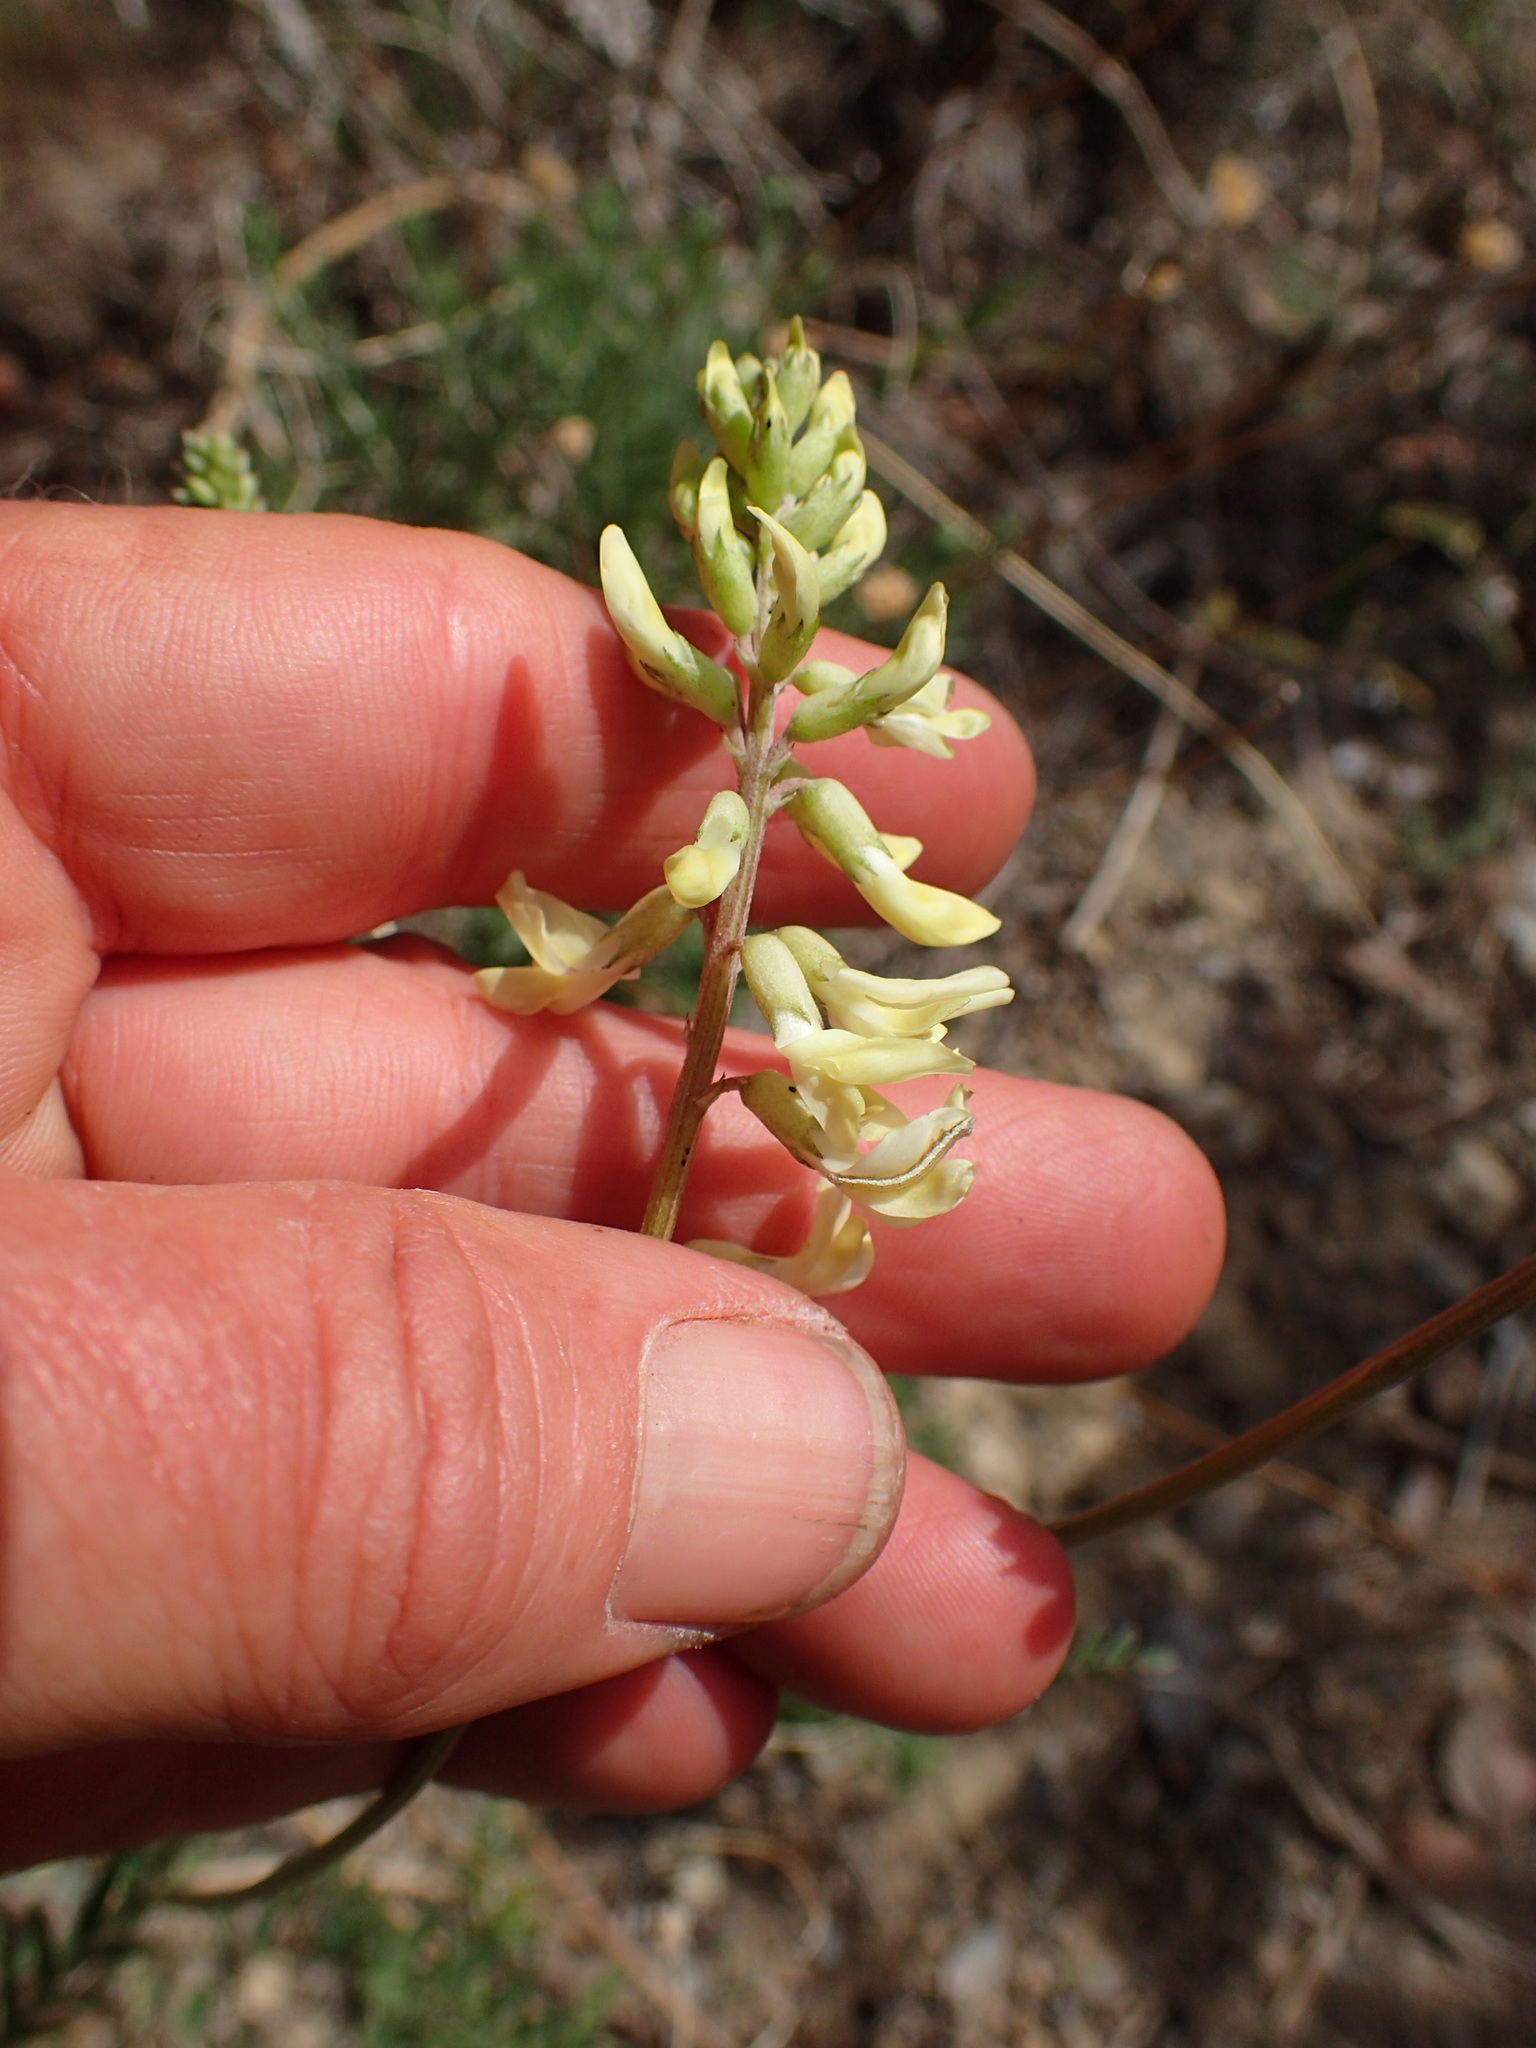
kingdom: Plantae
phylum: Tracheophyta
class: Magnoliopsida
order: Fabales
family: Fabaceae
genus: Astragalus
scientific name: Astragalus trichopodus
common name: Santa barbara milk-vetch
